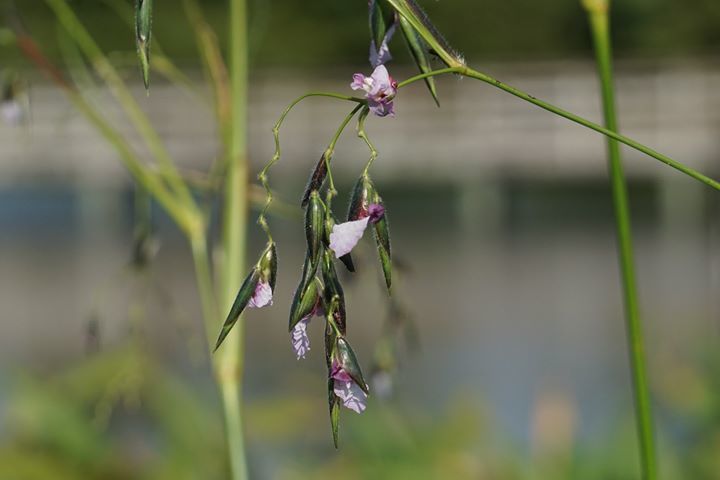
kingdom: Plantae
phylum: Tracheophyta
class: Liliopsida
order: Zingiberales
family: Marantaceae
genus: Thalia
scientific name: Thalia geniculata
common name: Arrowroot
